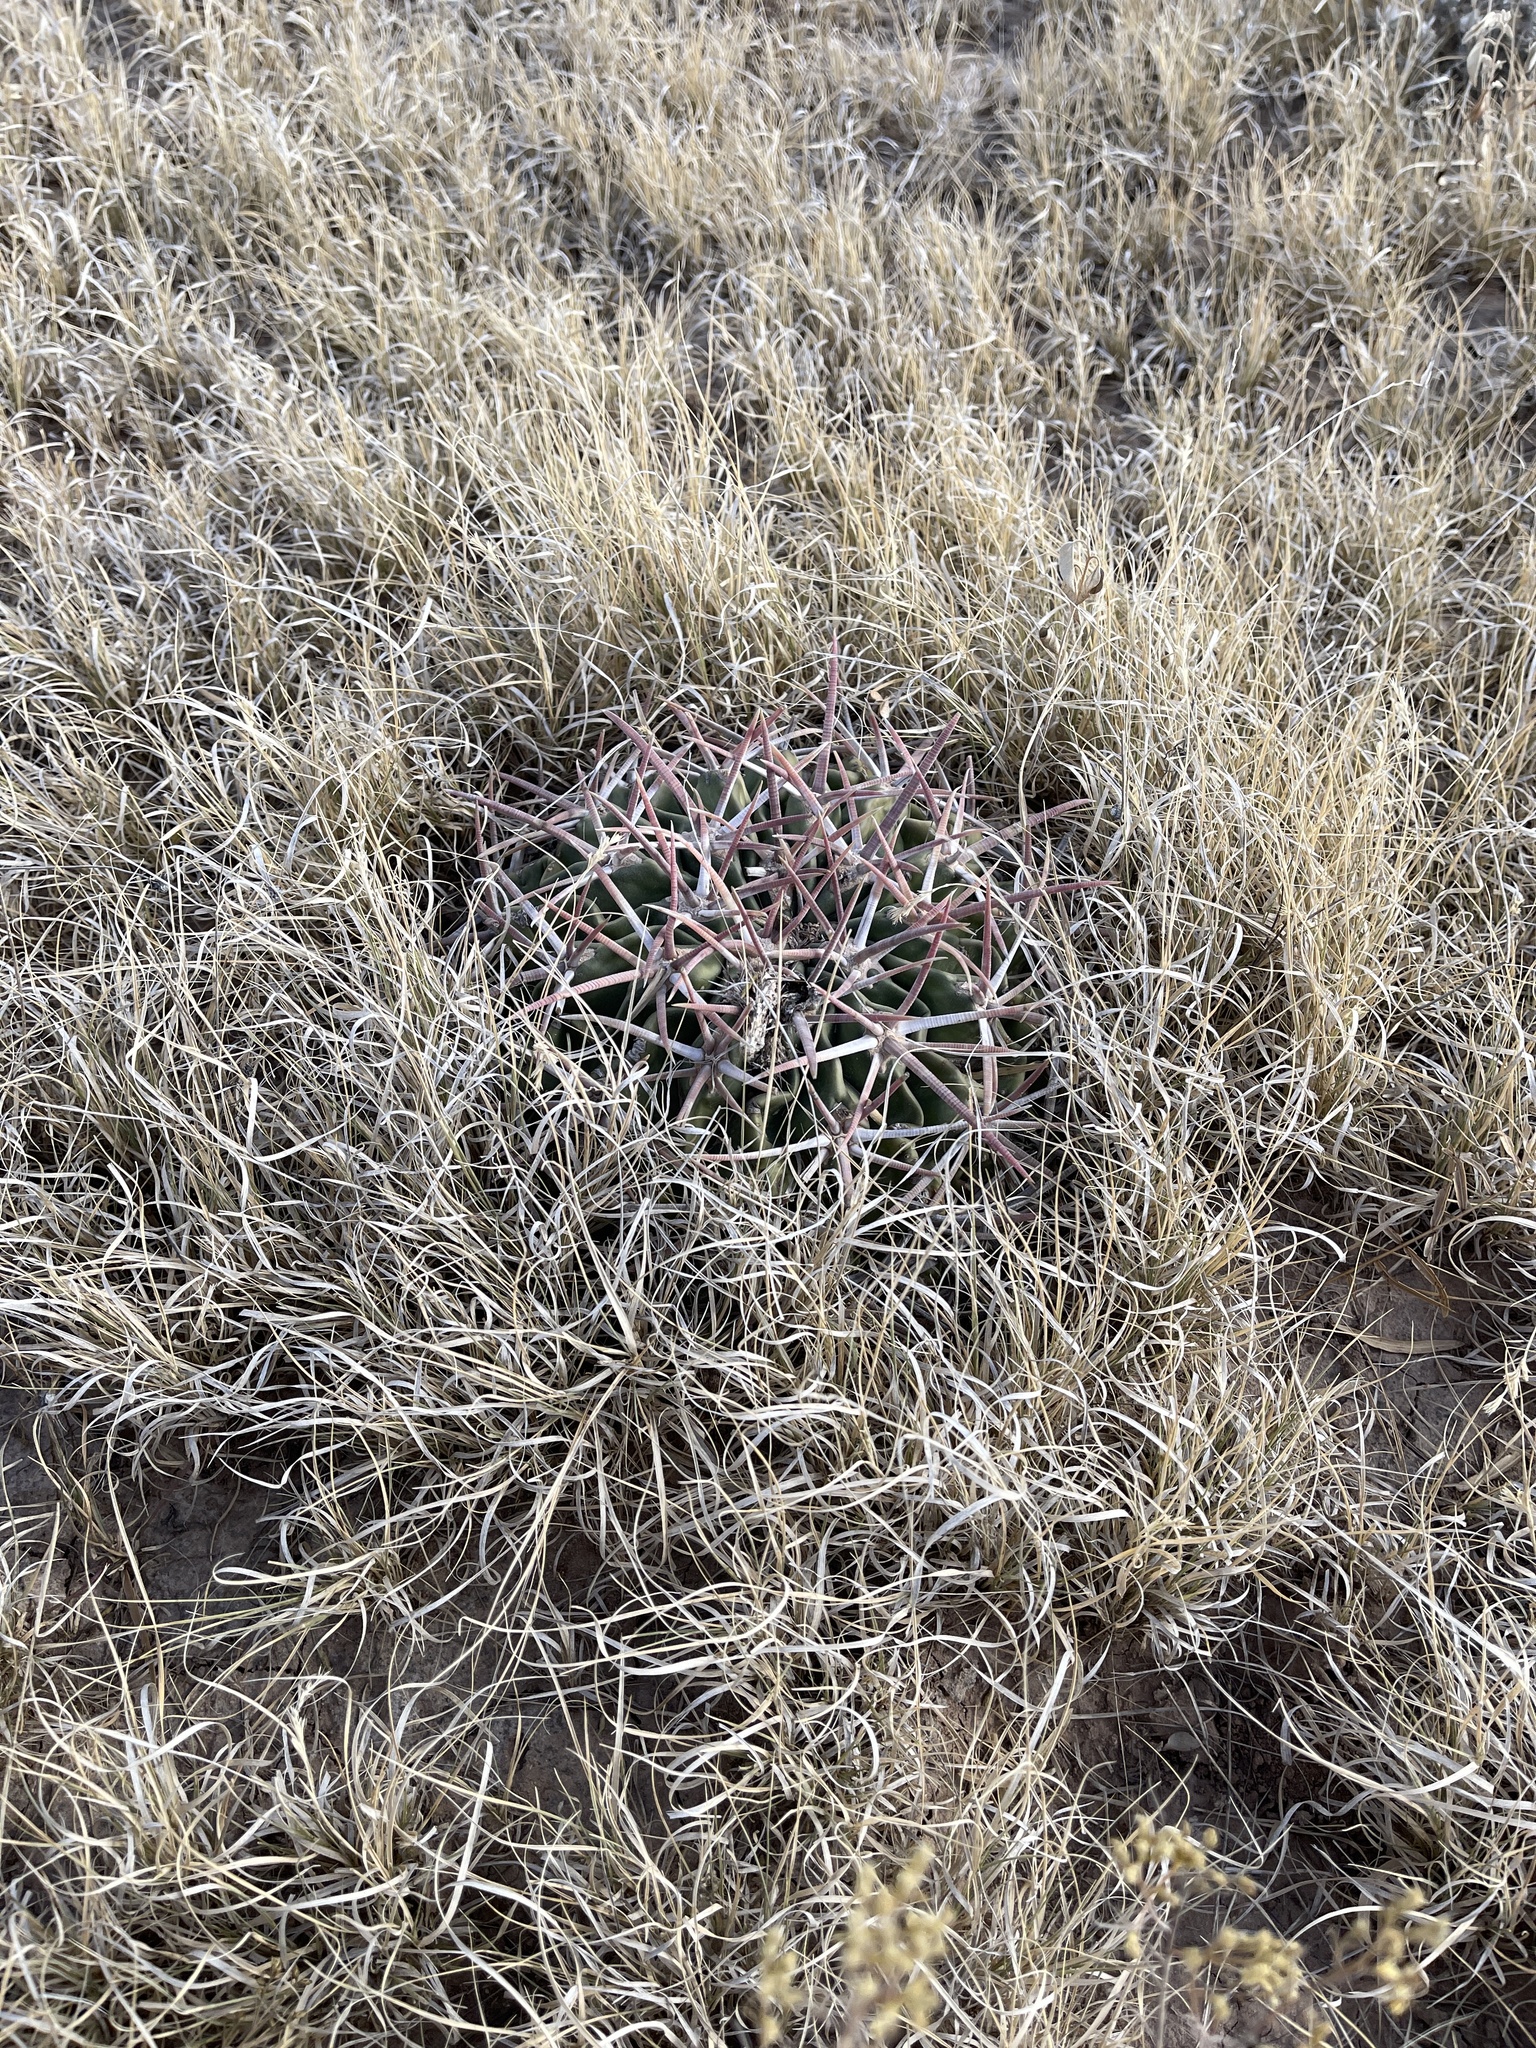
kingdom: Plantae
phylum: Tracheophyta
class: Magnoliopsida
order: Caryophyllales
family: Cactaceae
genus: Echinocactus
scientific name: Echinocactus texensis
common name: Devil's pincushion
